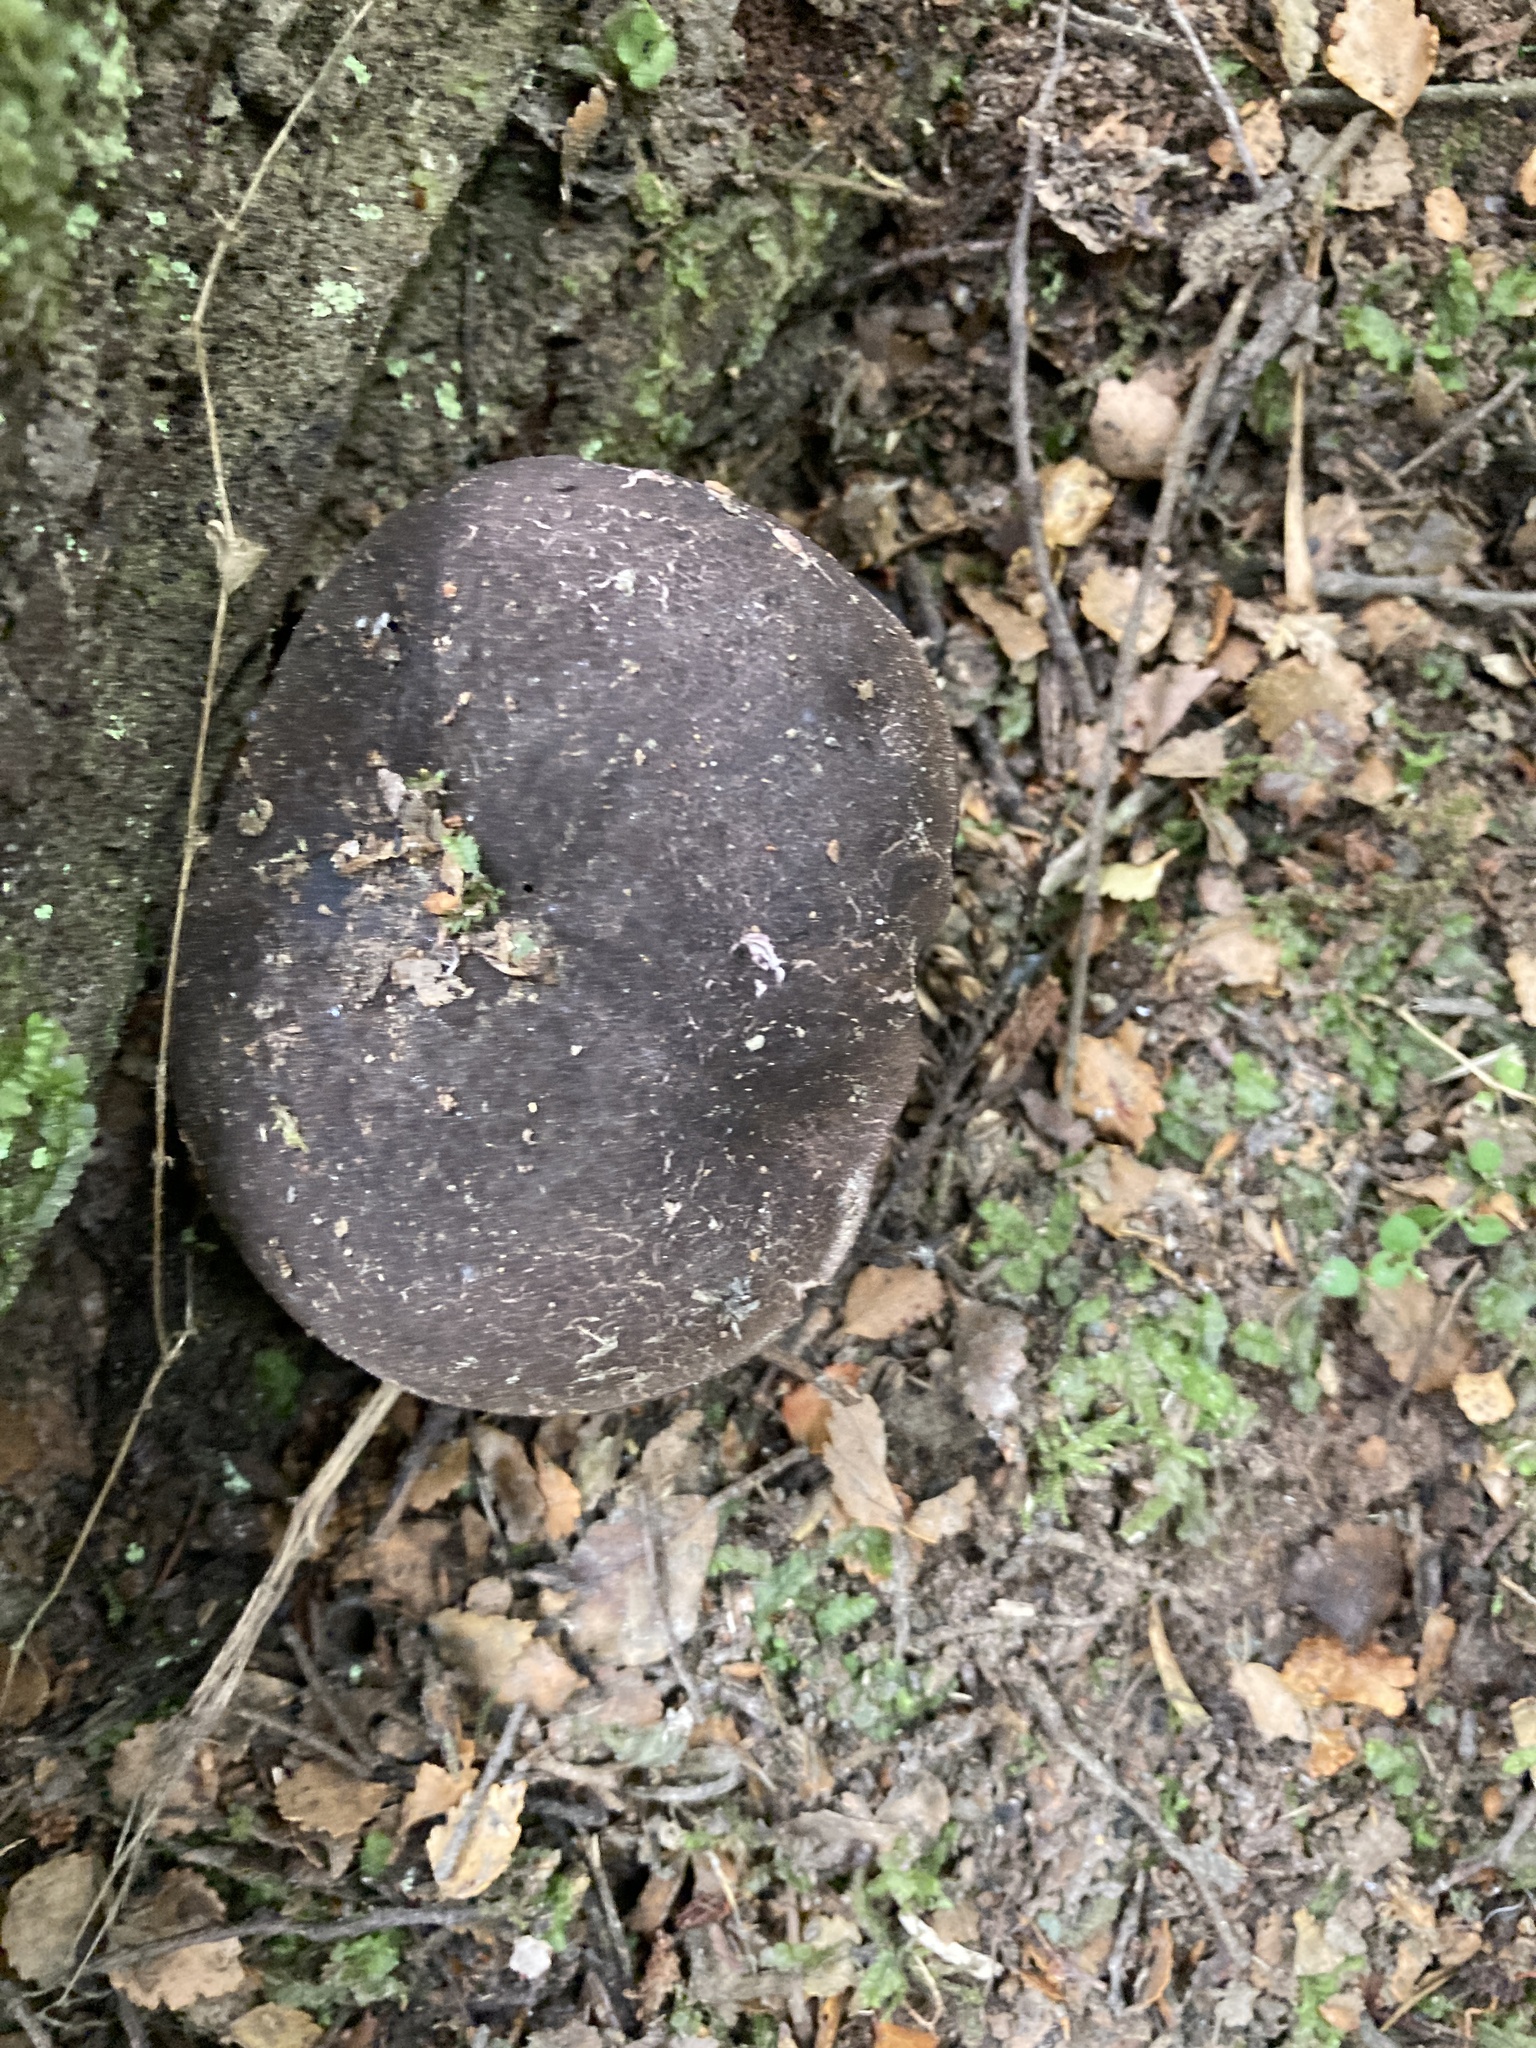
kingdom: Fungi
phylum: Basidiomycota
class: Agaricomycetes
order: Boletales
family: Boletaceae
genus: Porphyrellus
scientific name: Porphyrellus formosus
